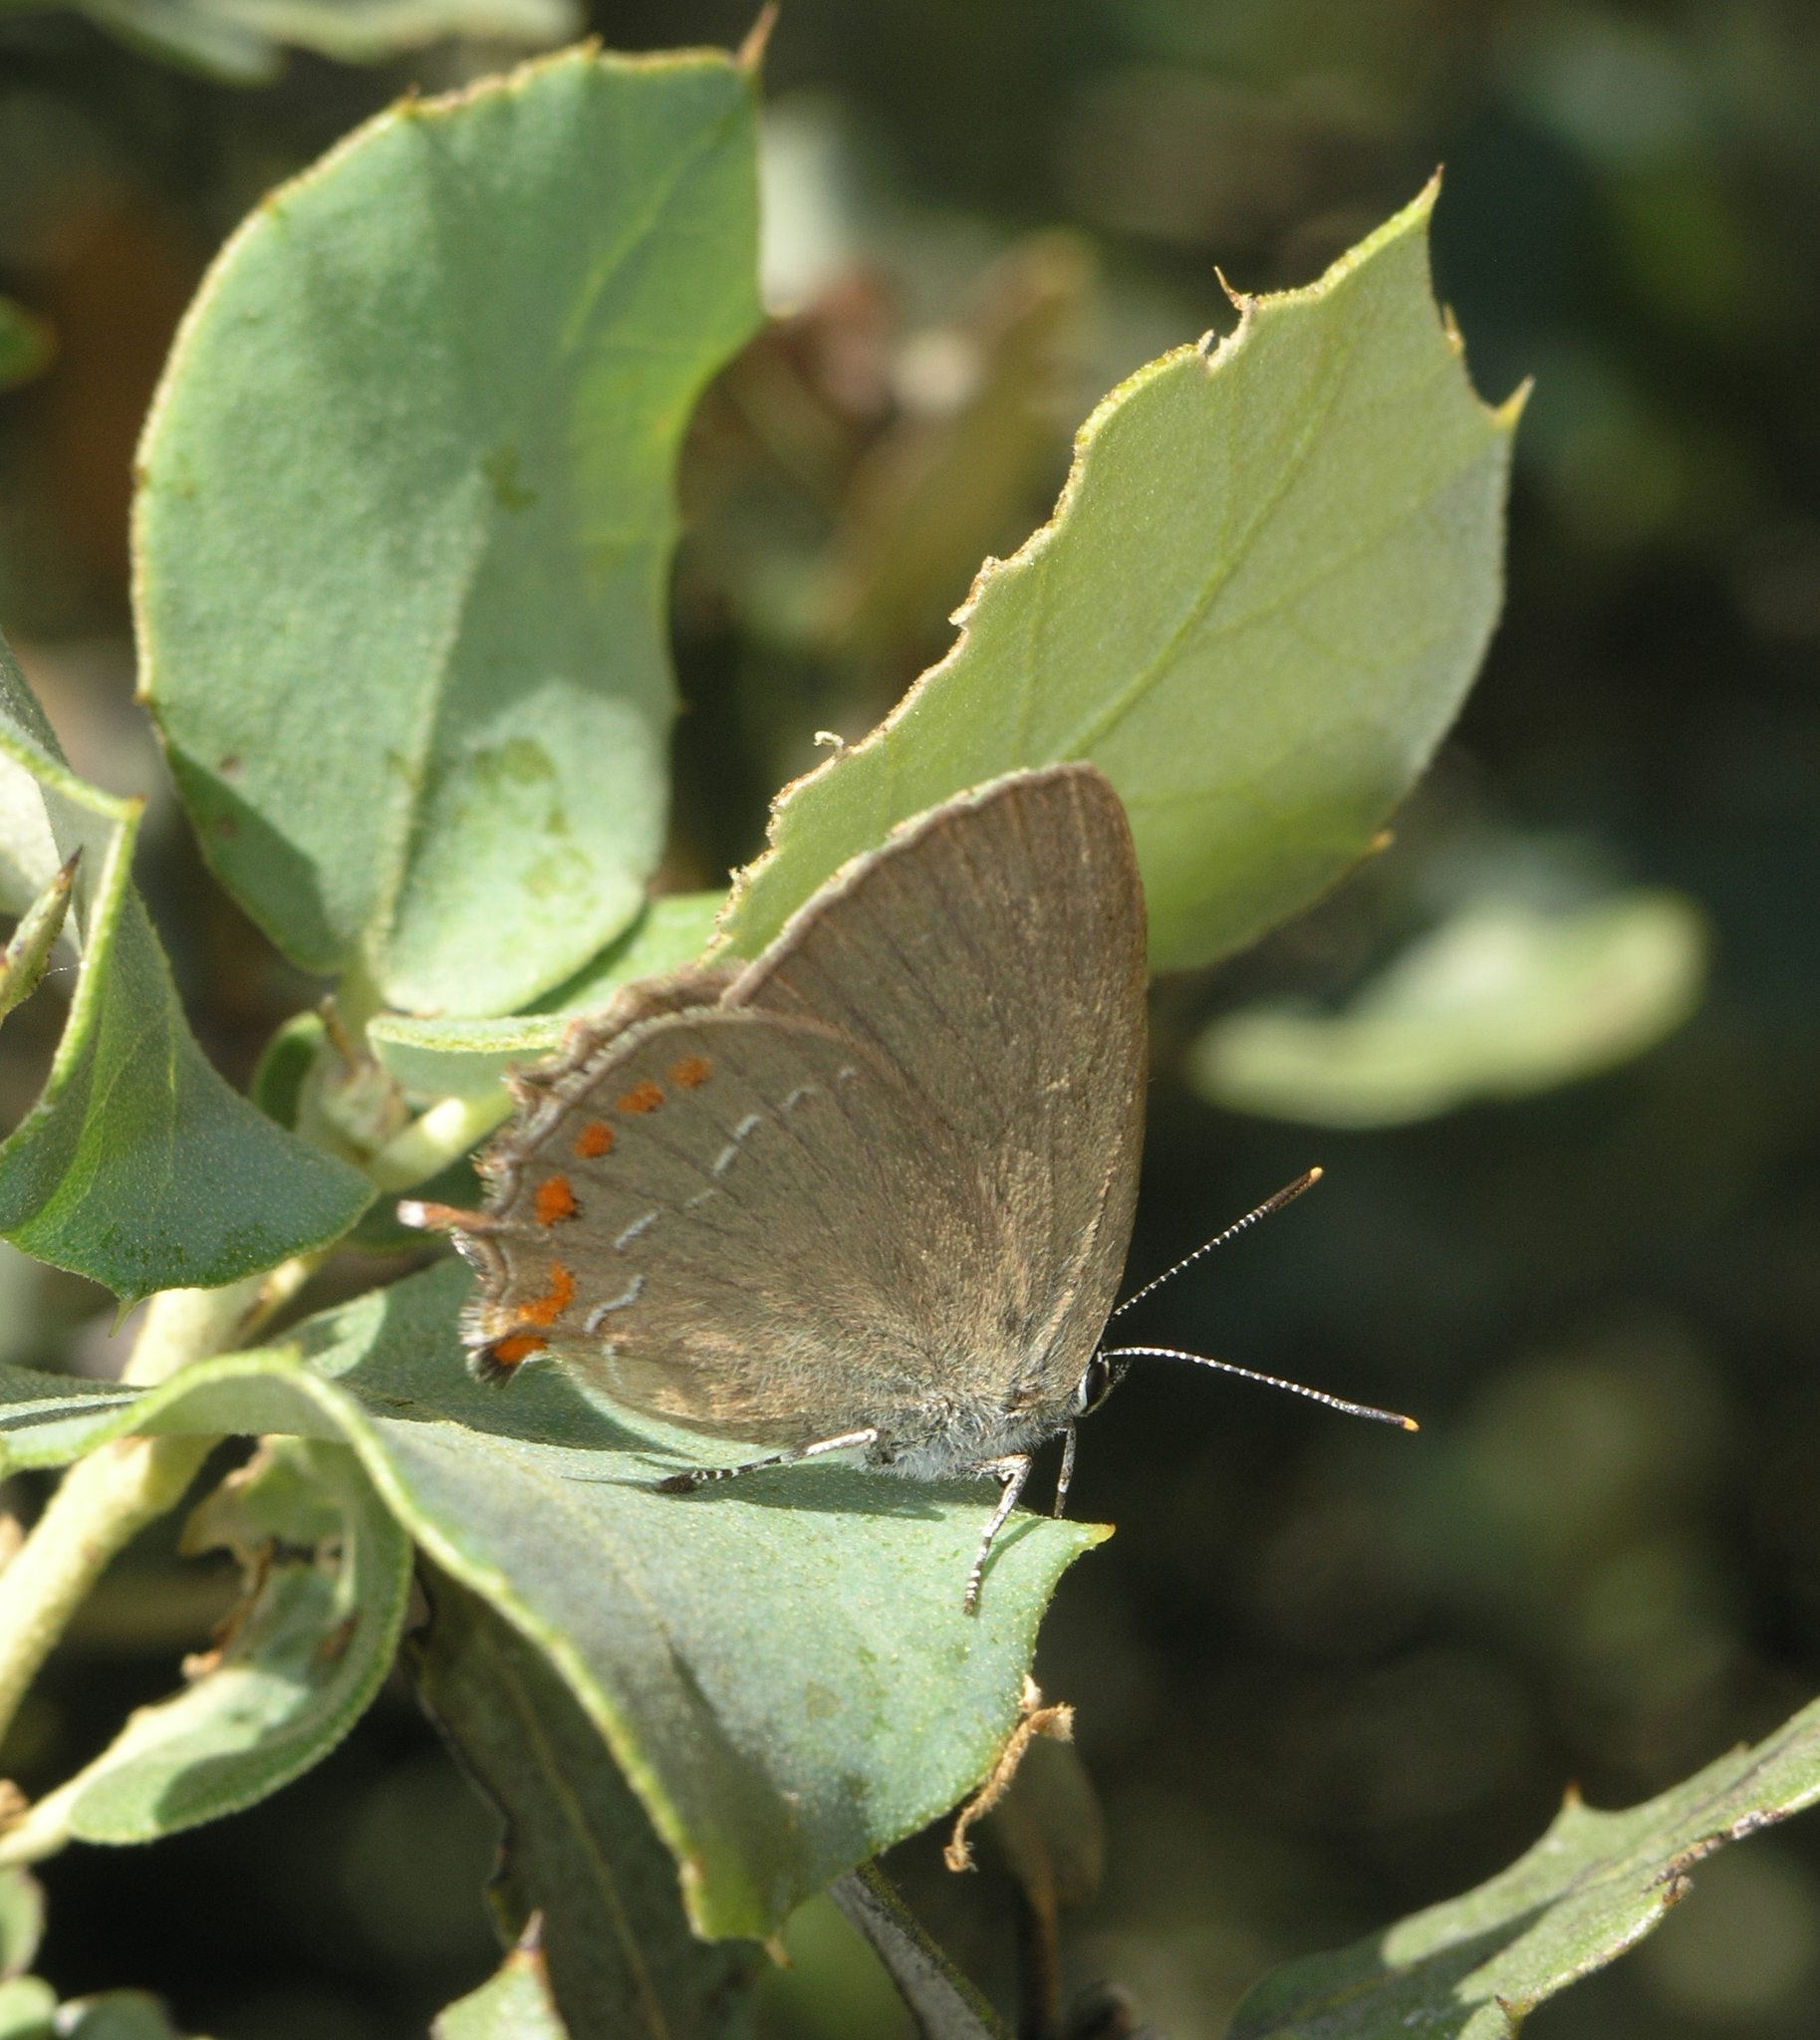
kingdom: Plantae
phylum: Tracheophyta
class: Magnoliopsida
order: Fagales
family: Fagaceae
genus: Quercus
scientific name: Quercus rotundifolia
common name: Holm oak
